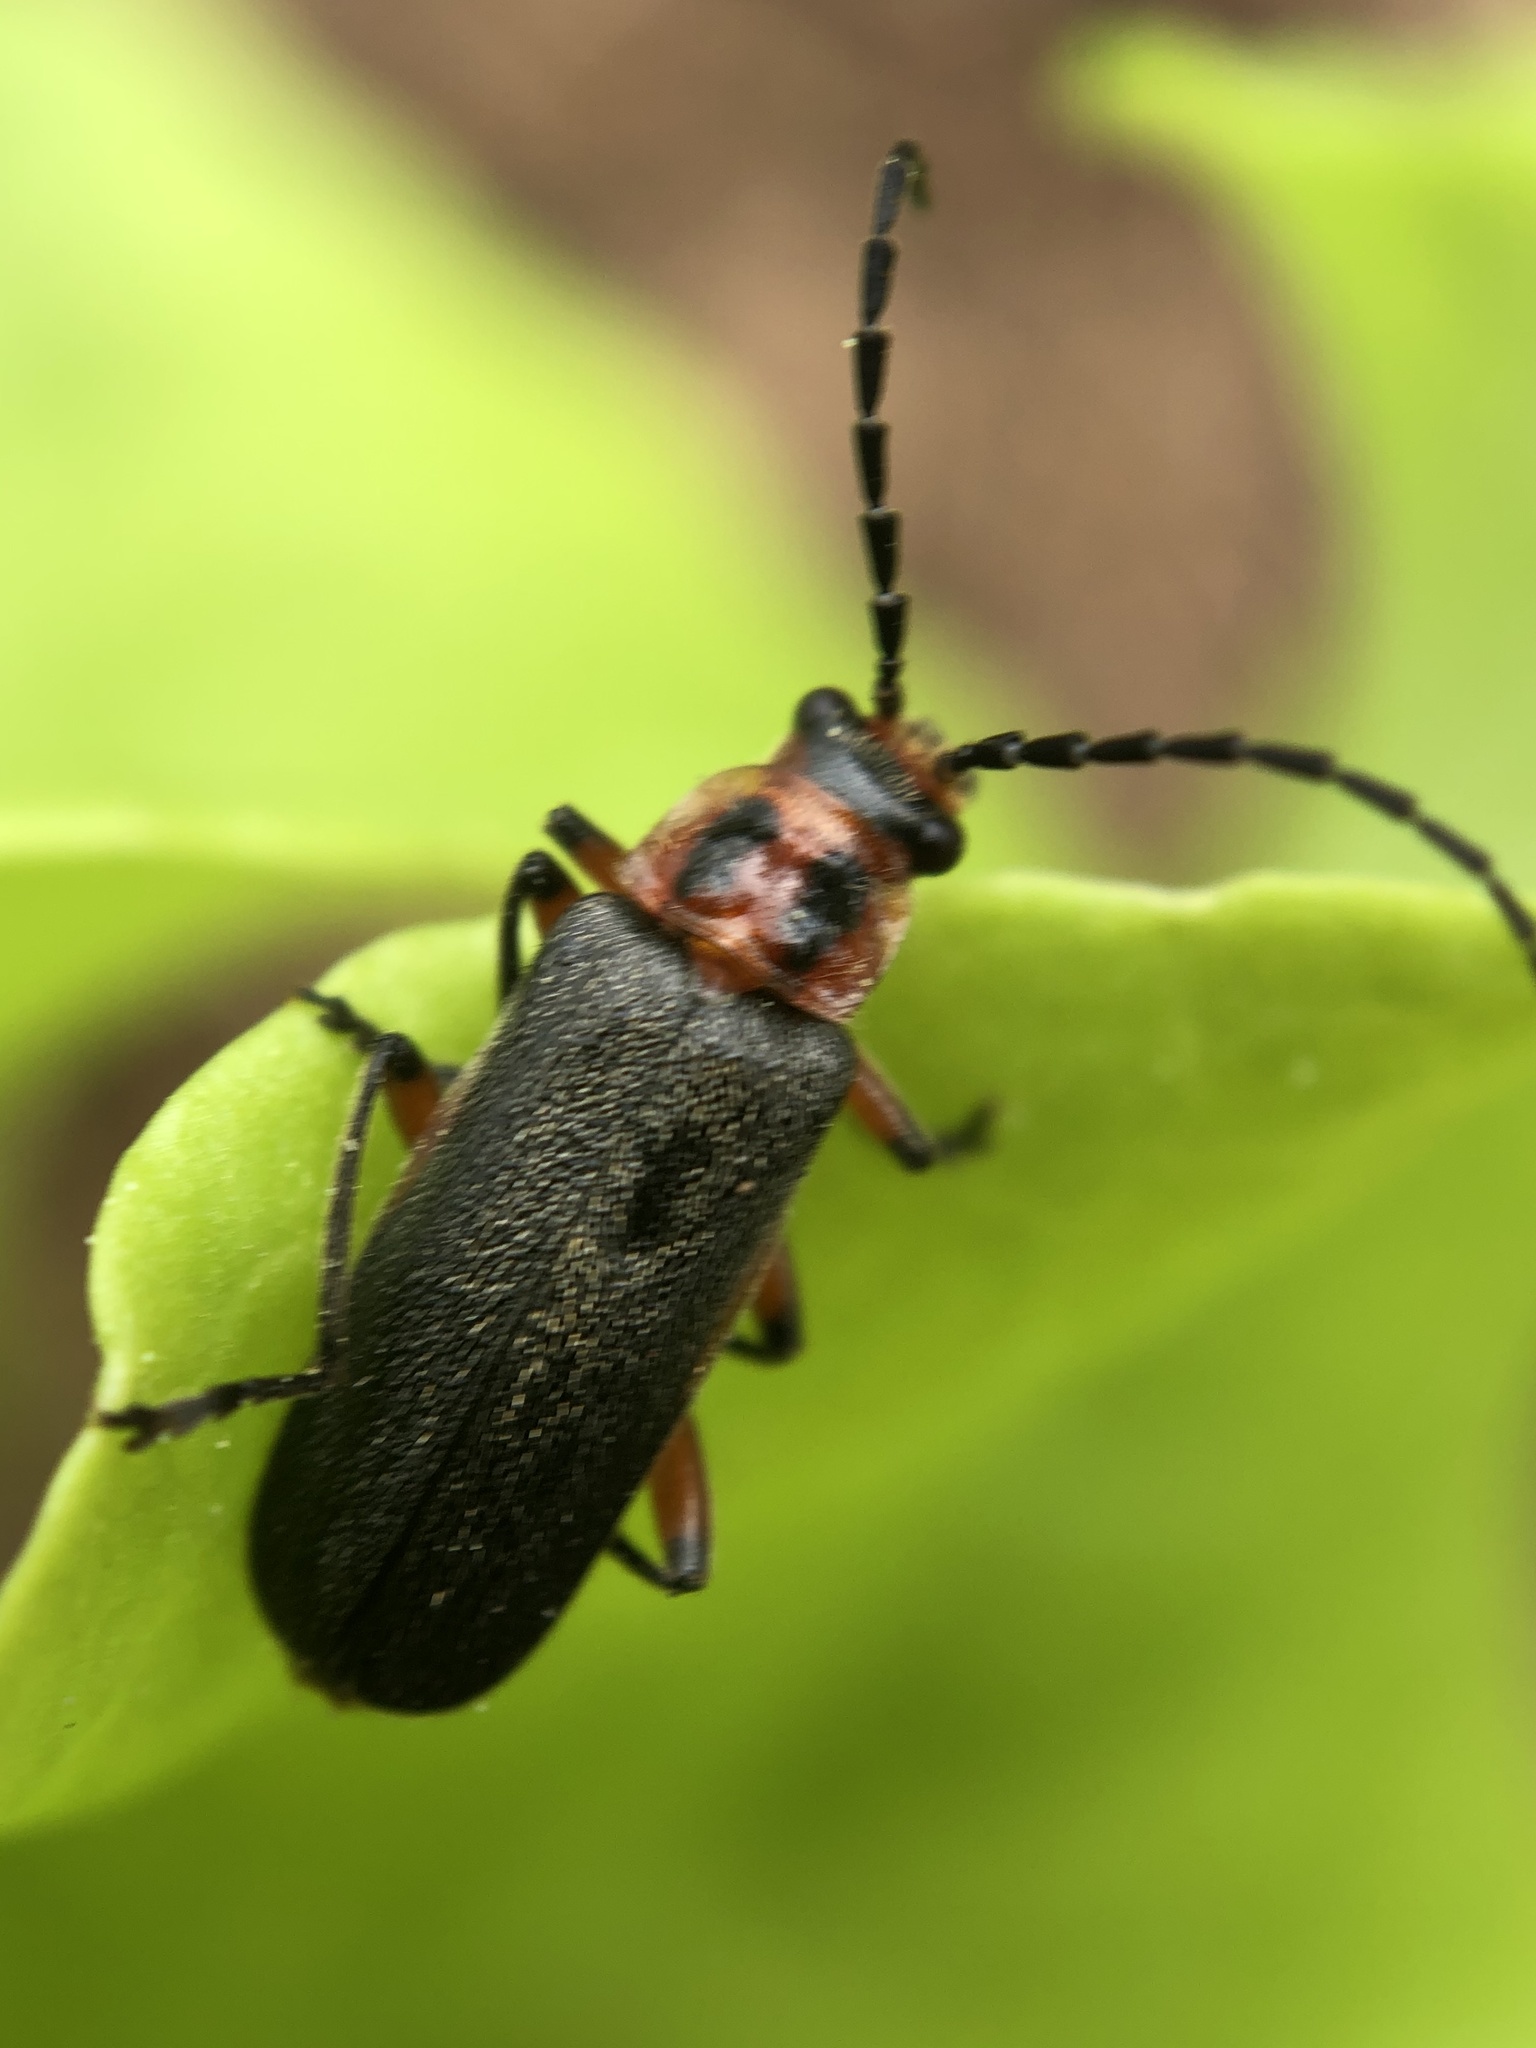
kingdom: Animalia
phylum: Arthropoda
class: Insecta
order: Coleoptera
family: Cantharidae
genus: Atalantycha
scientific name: Atalantycha bilineata
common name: Two-lined leatherwing
